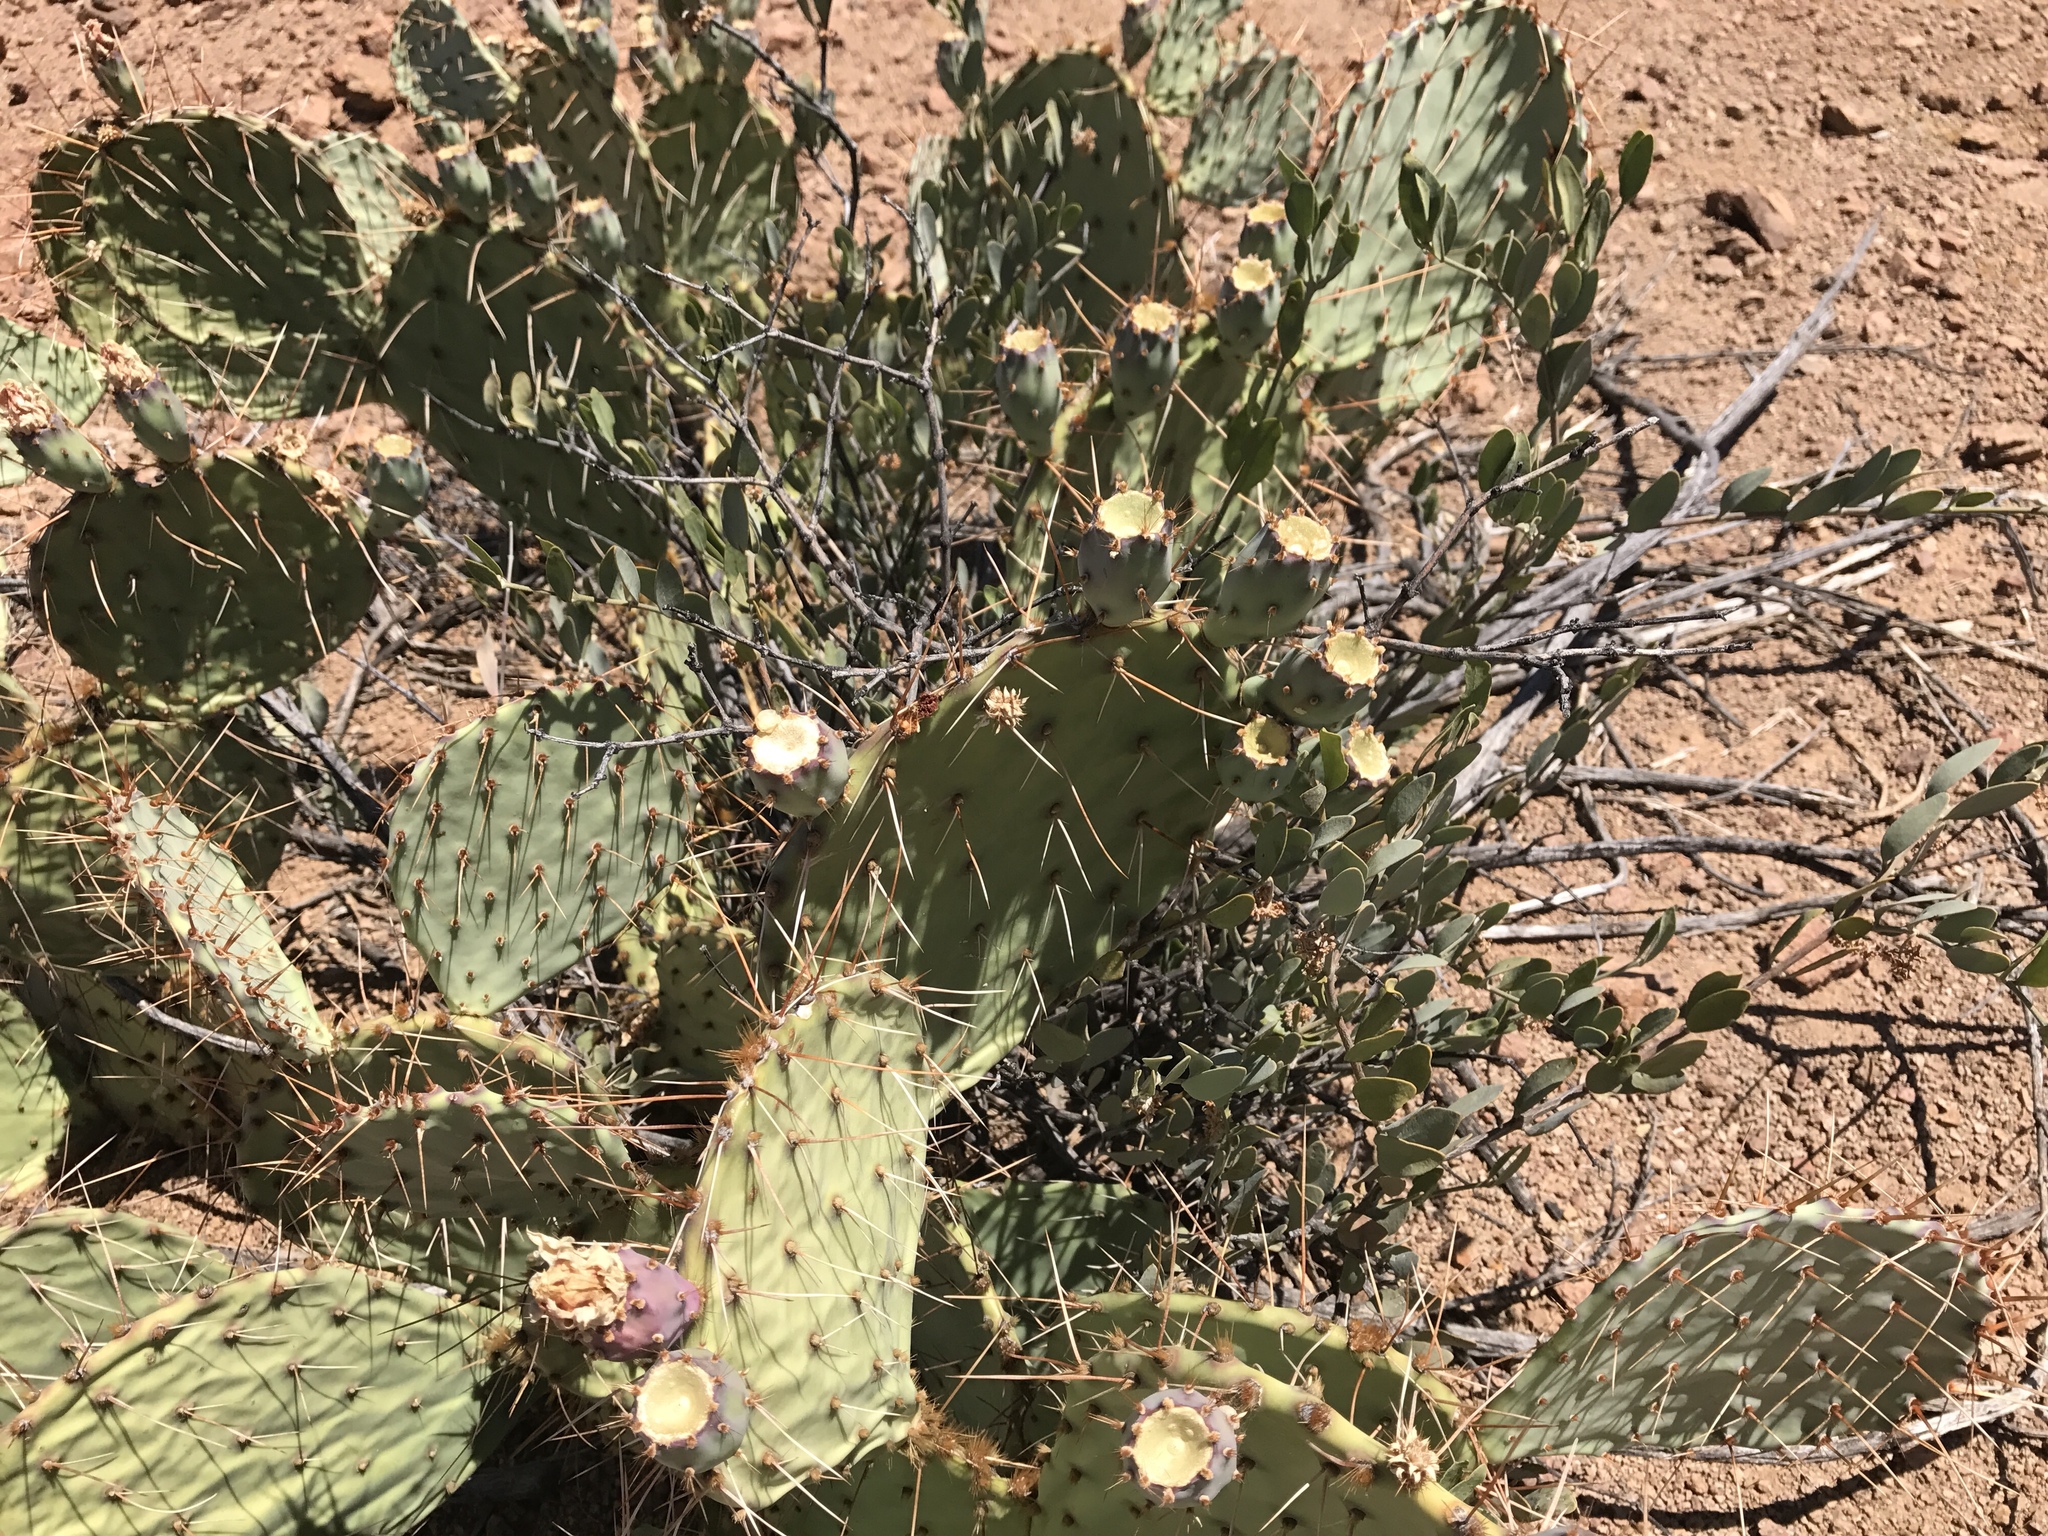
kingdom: Plantae
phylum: Tracheophyta
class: Magnoliopsida
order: Caryophyllales
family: Cactaceae
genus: Opuntia
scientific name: Opuntia engelmannii
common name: Cactus-apple
